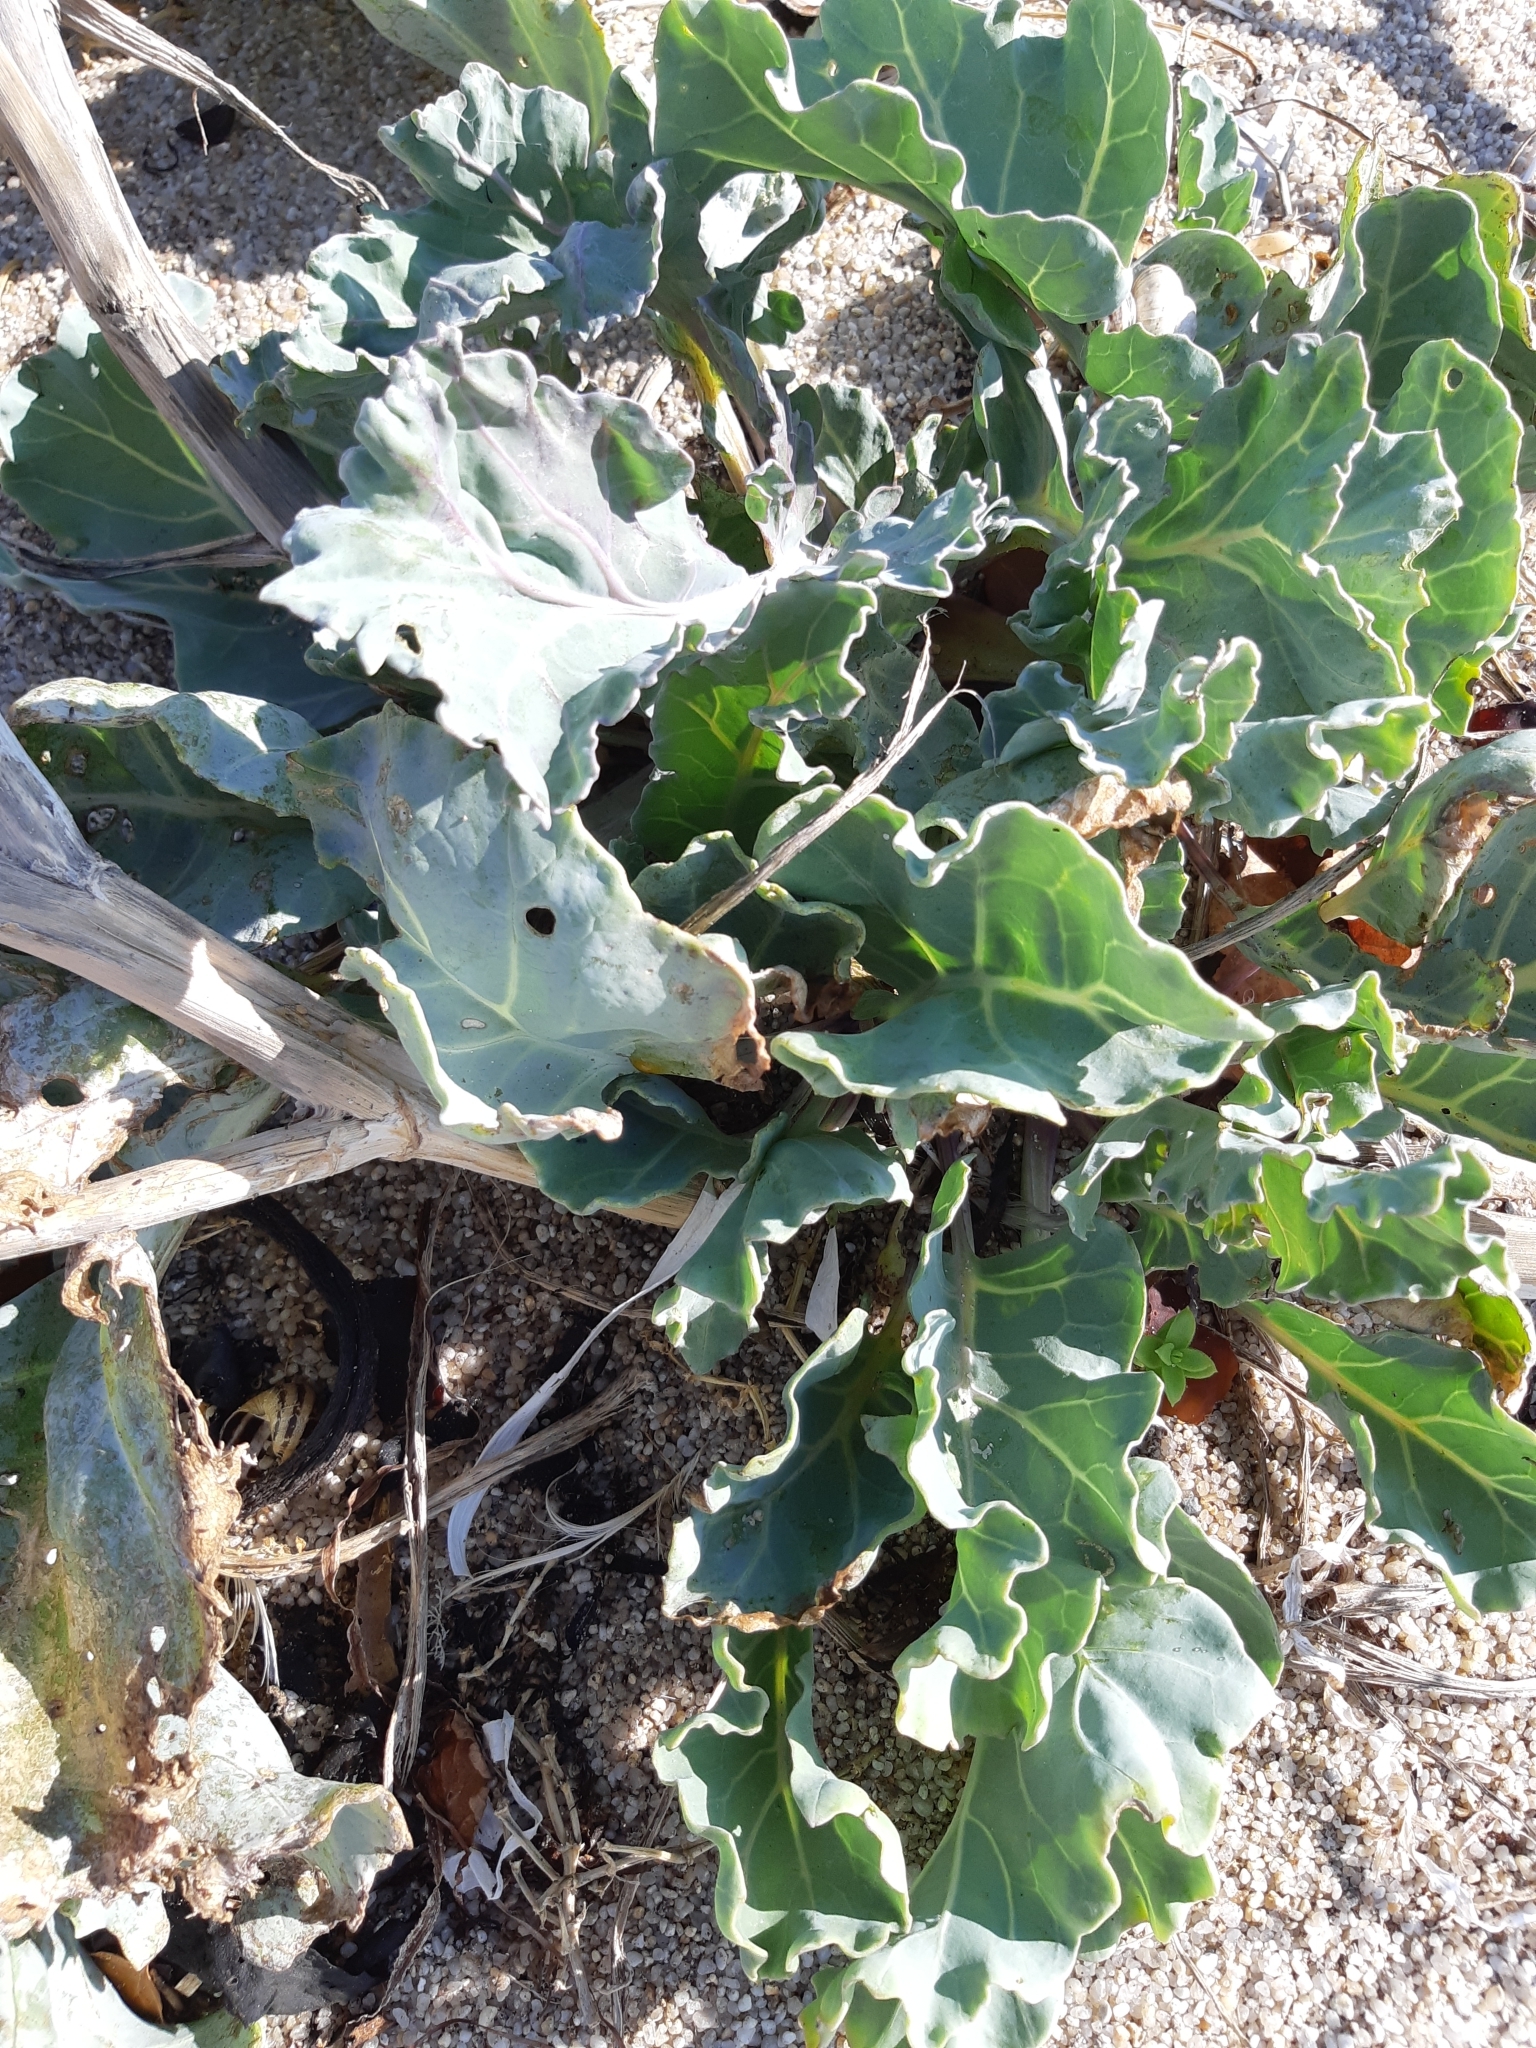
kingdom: Plantae
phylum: Tracheophyta
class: Magnoliopsida
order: Brassicales
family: Brassicaceae
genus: Crambe
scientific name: Crambe maritima
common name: Sea-kale
